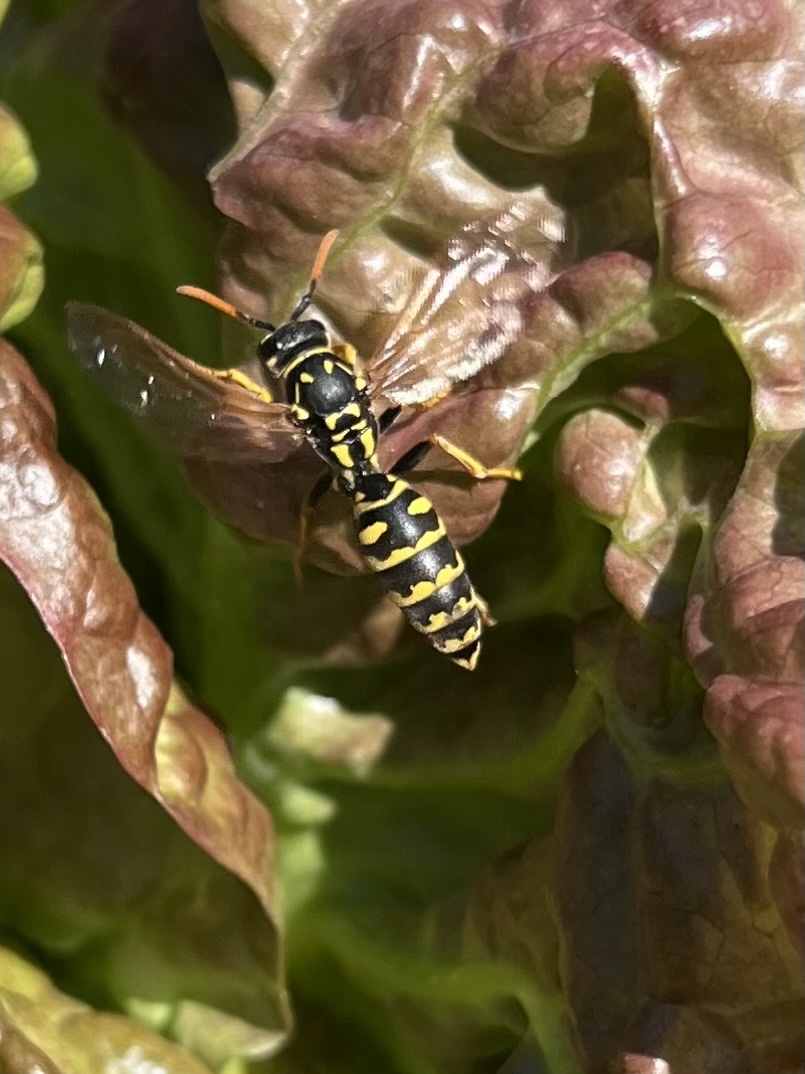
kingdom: Animalia
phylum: Arthropoda
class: Insecta
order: Hymenoptera
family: Eumenidae
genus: Polistes
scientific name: Polistes dominula
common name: Paper wasp
